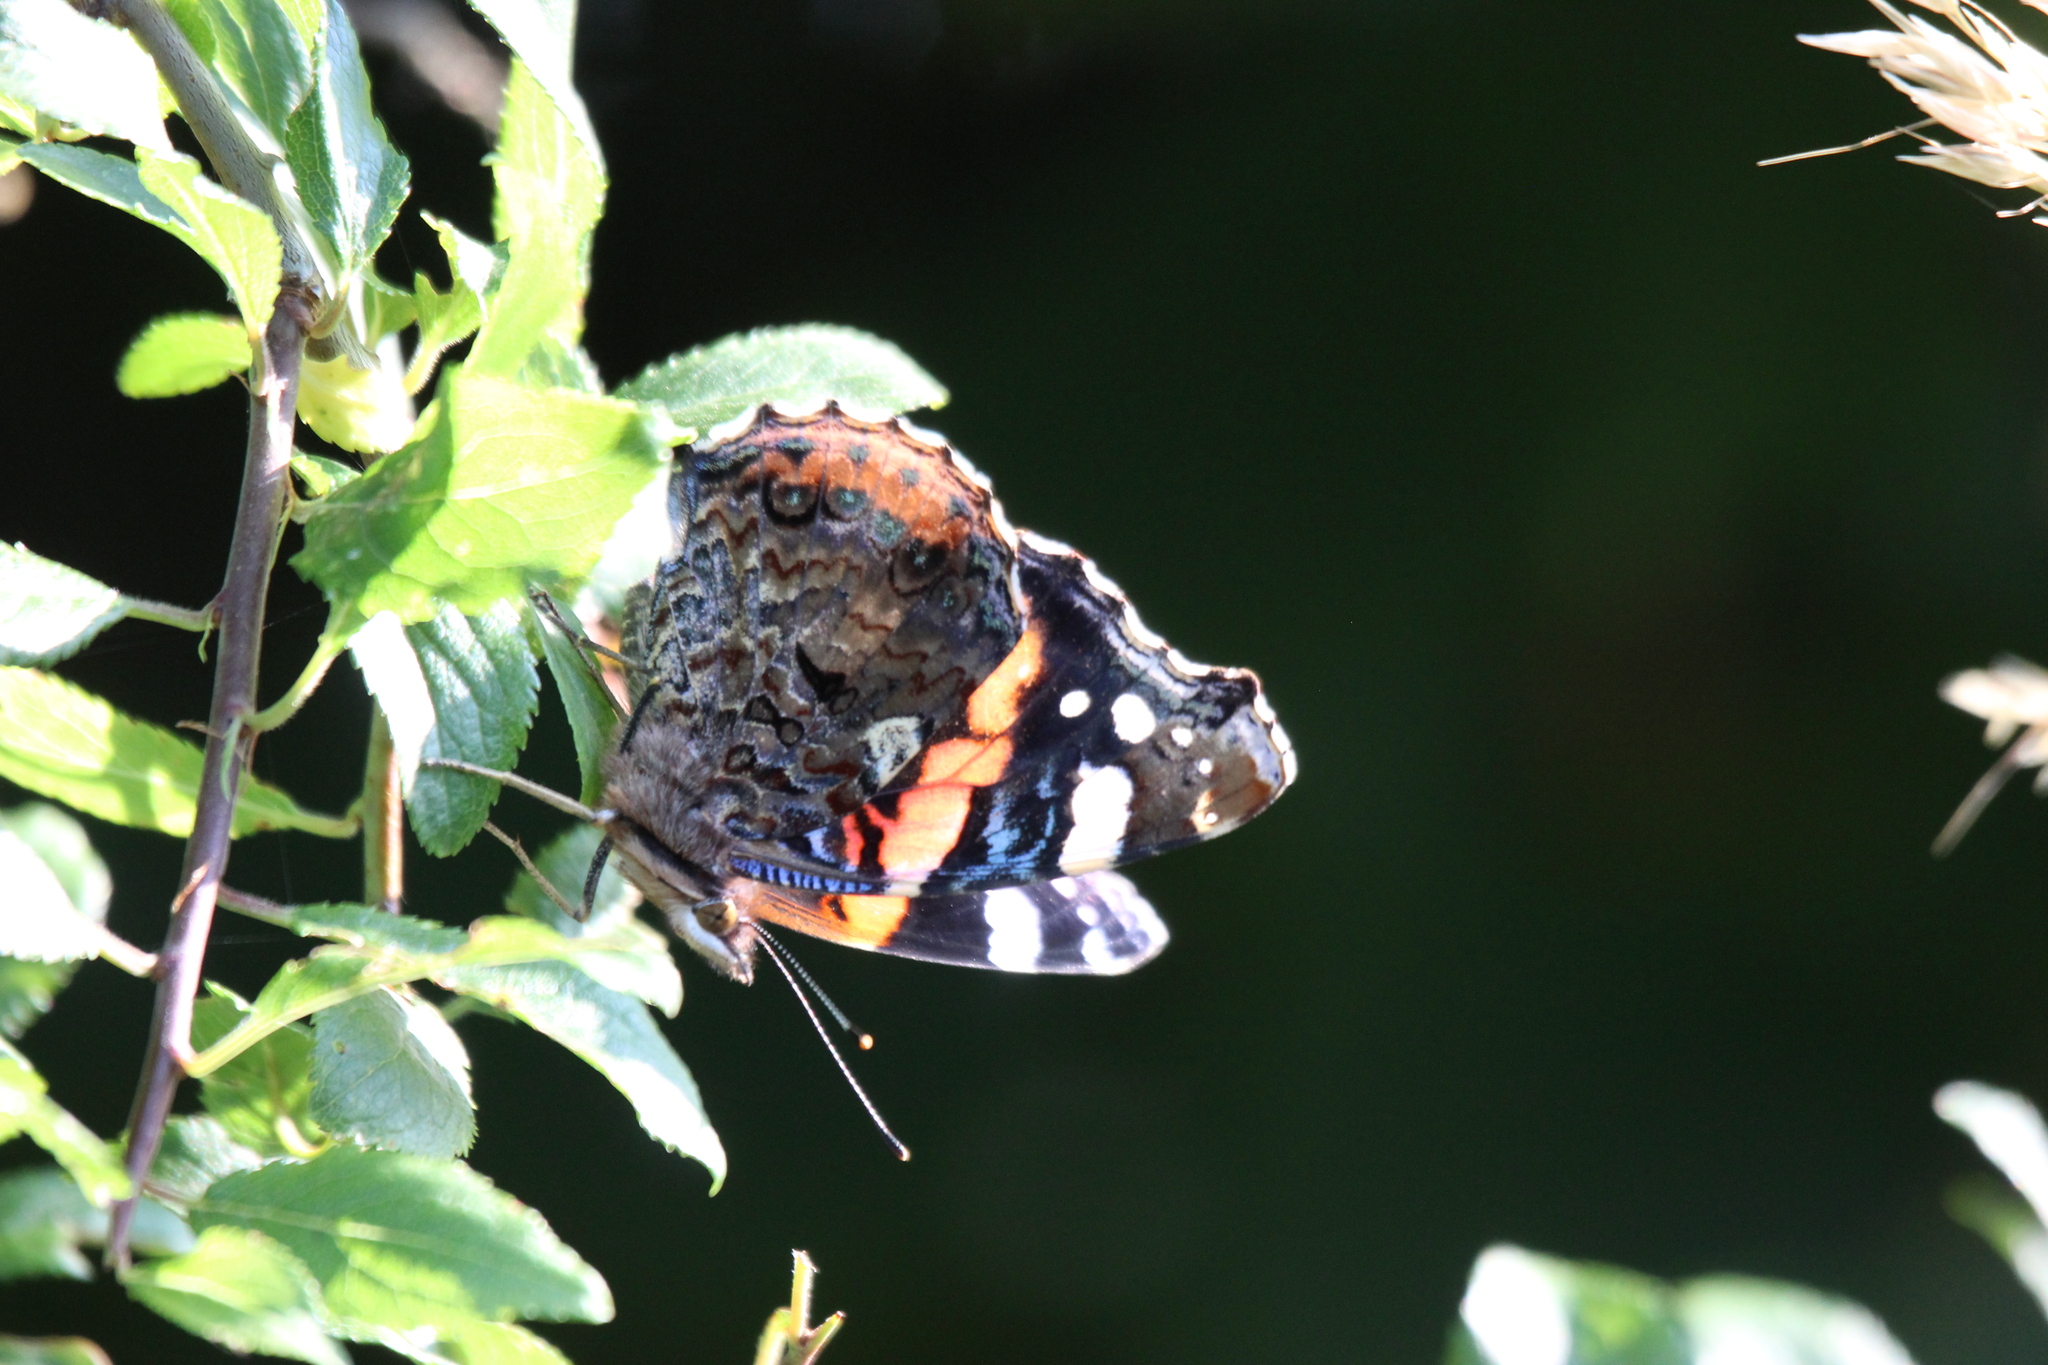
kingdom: Animalia
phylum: Arthropoda
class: Insecta
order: Lepidoptera
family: Nymphalidae
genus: Vanessa
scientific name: Vanessa atalanta
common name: Red admiral
